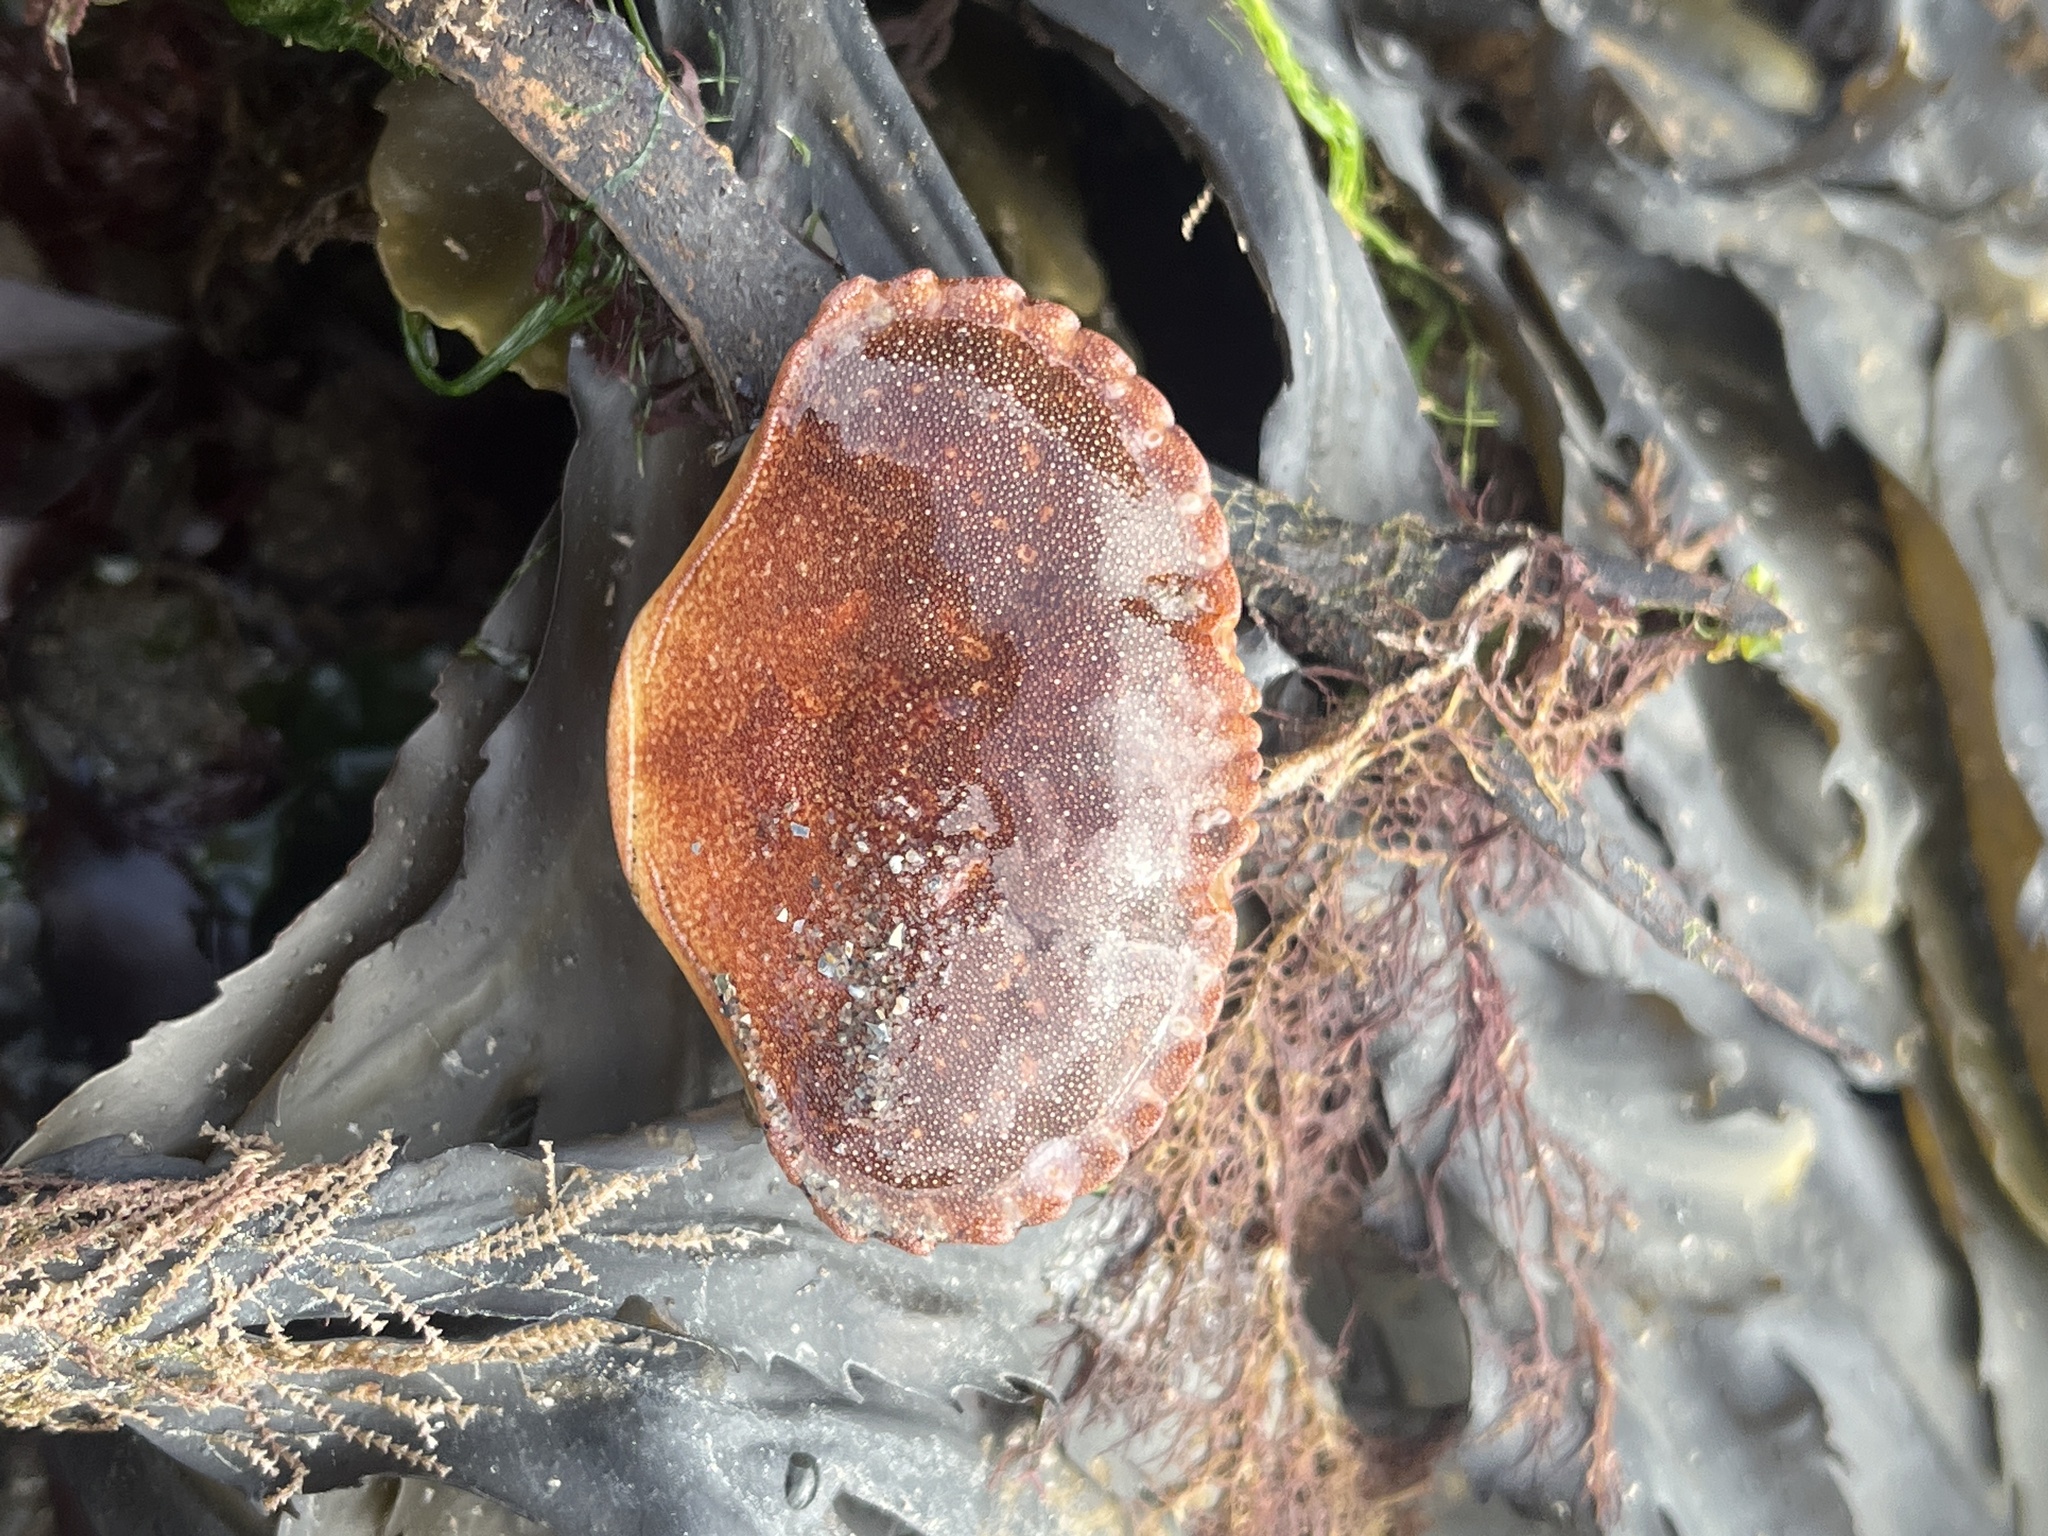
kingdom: Animalia
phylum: Arthropoda
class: Malacostraca
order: Decapoda
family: Cancridae
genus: Cancer
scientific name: Cancer pagurus
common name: Edible crab
